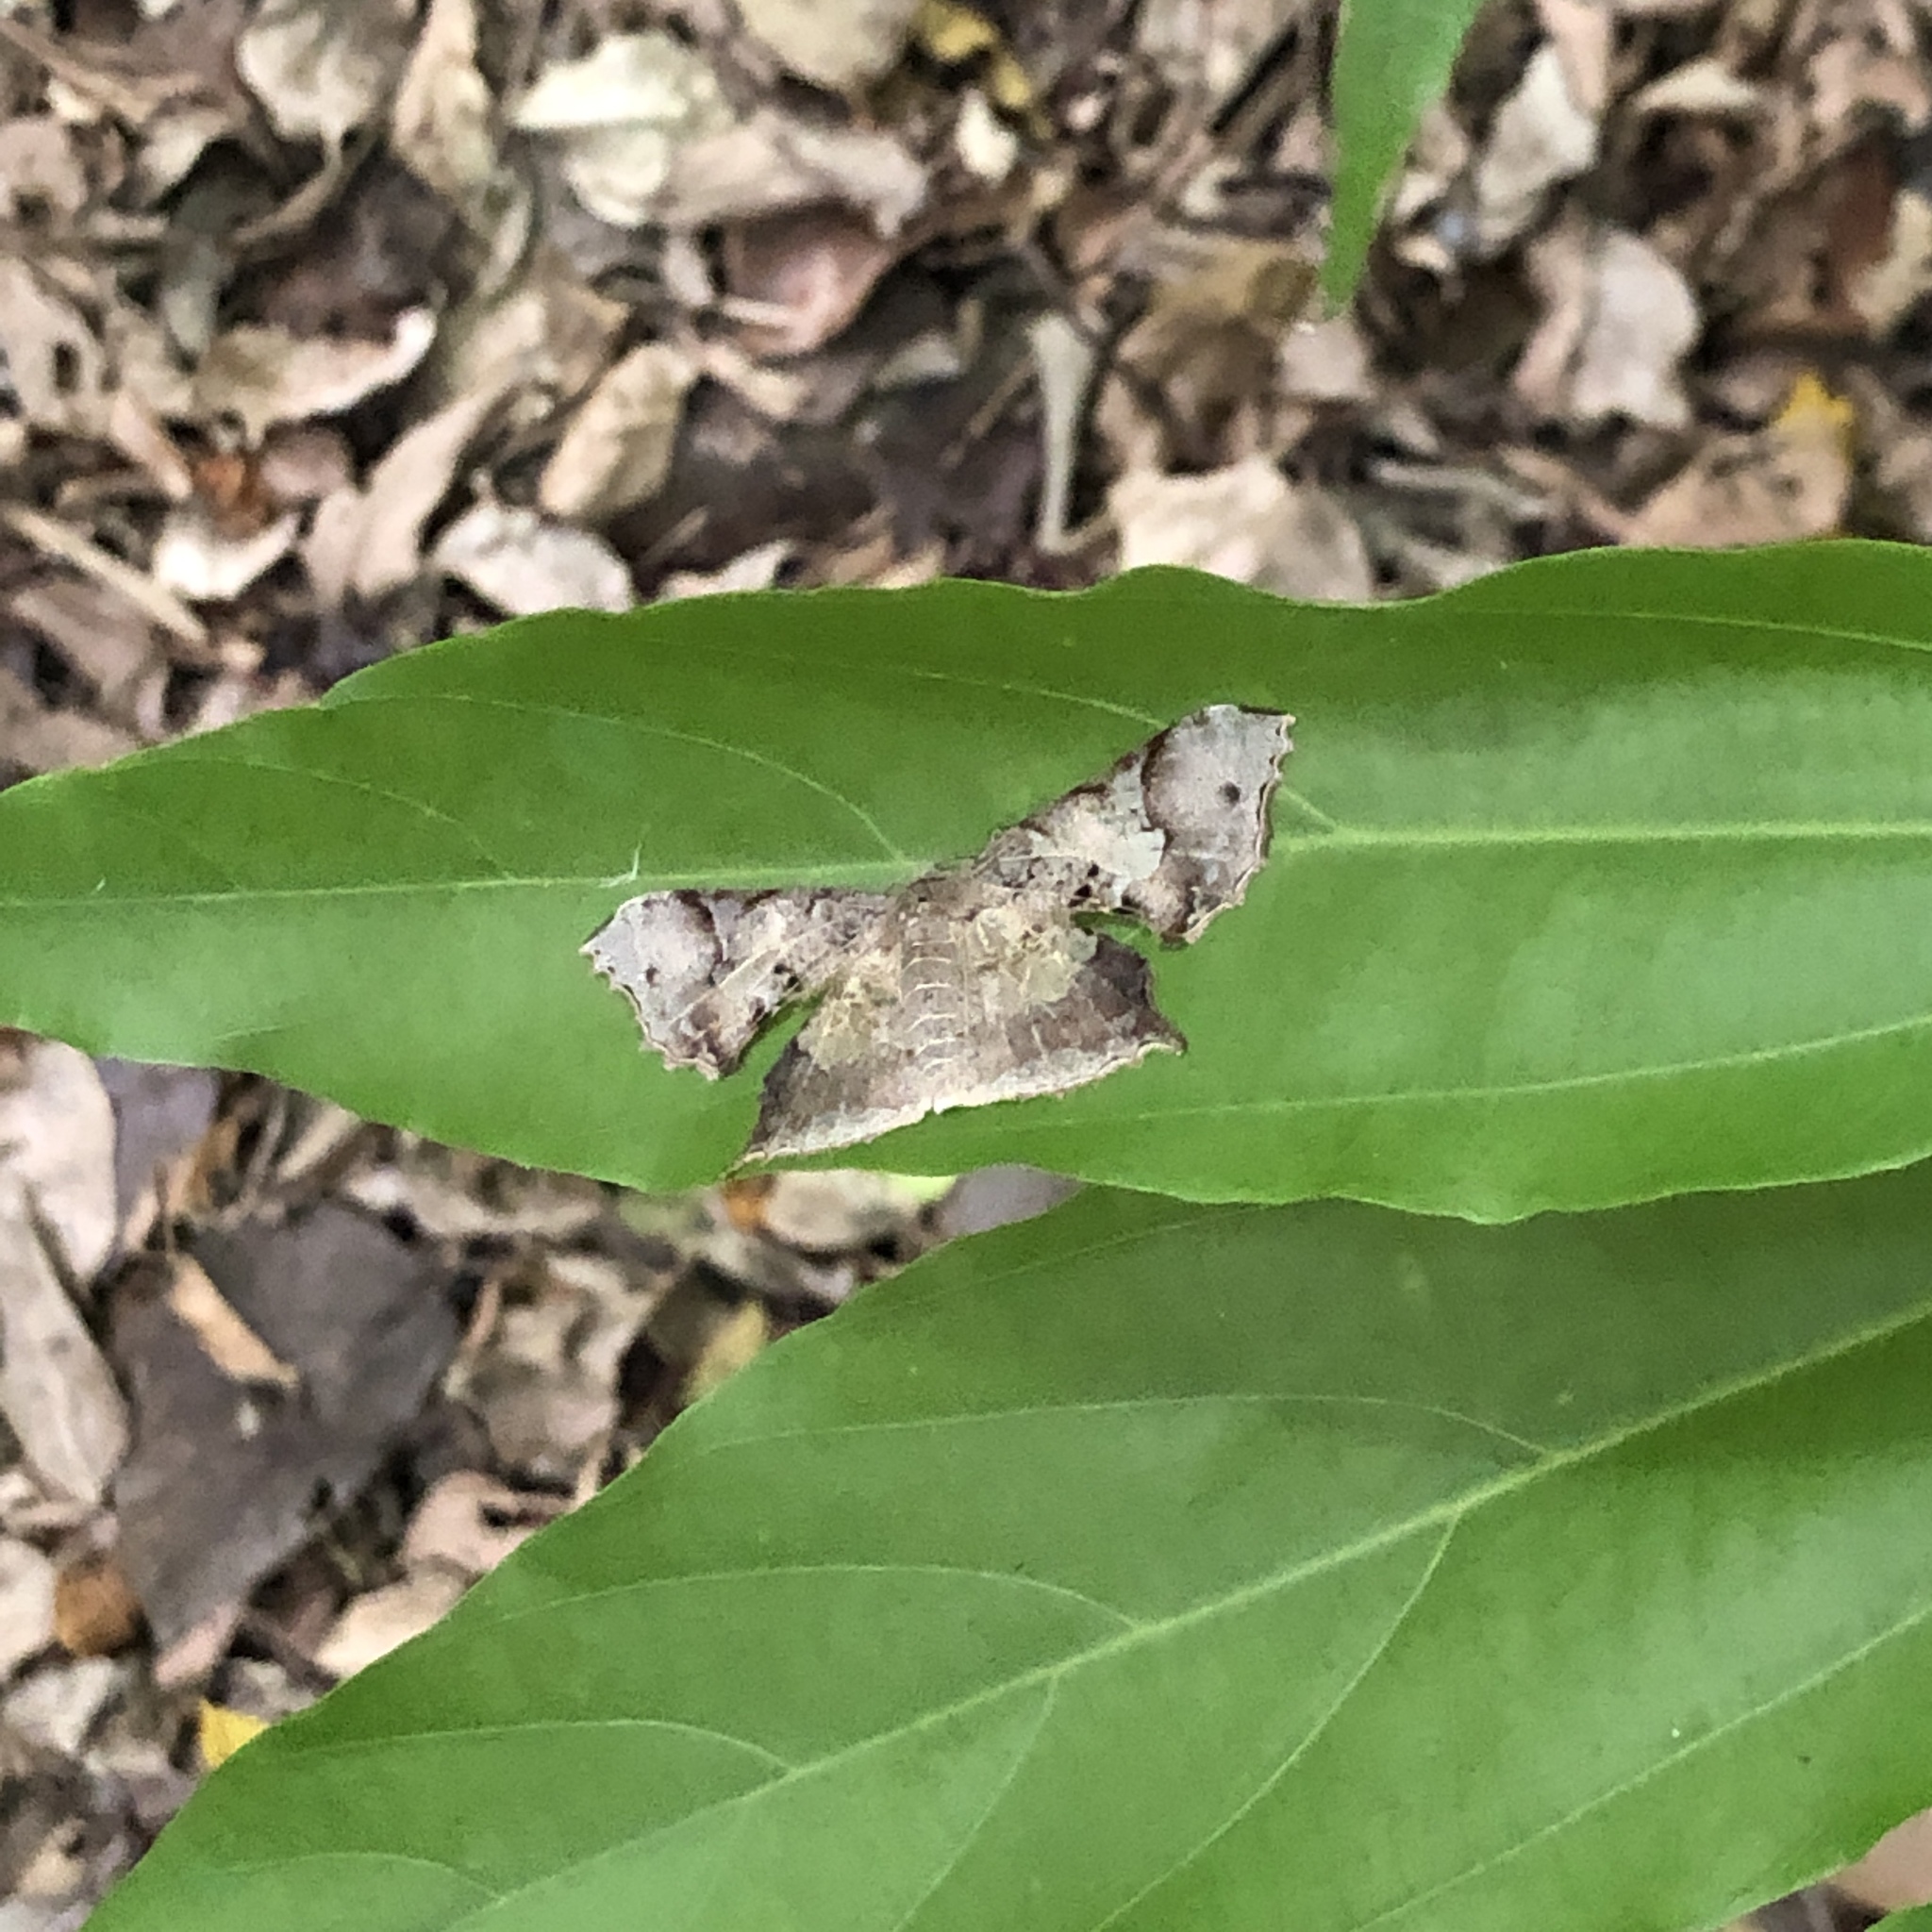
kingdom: Animalia
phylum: Arthropoda
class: Insecta
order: Lepidoptera
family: Geometridae
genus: Krananda
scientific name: Krananda semihyalina
